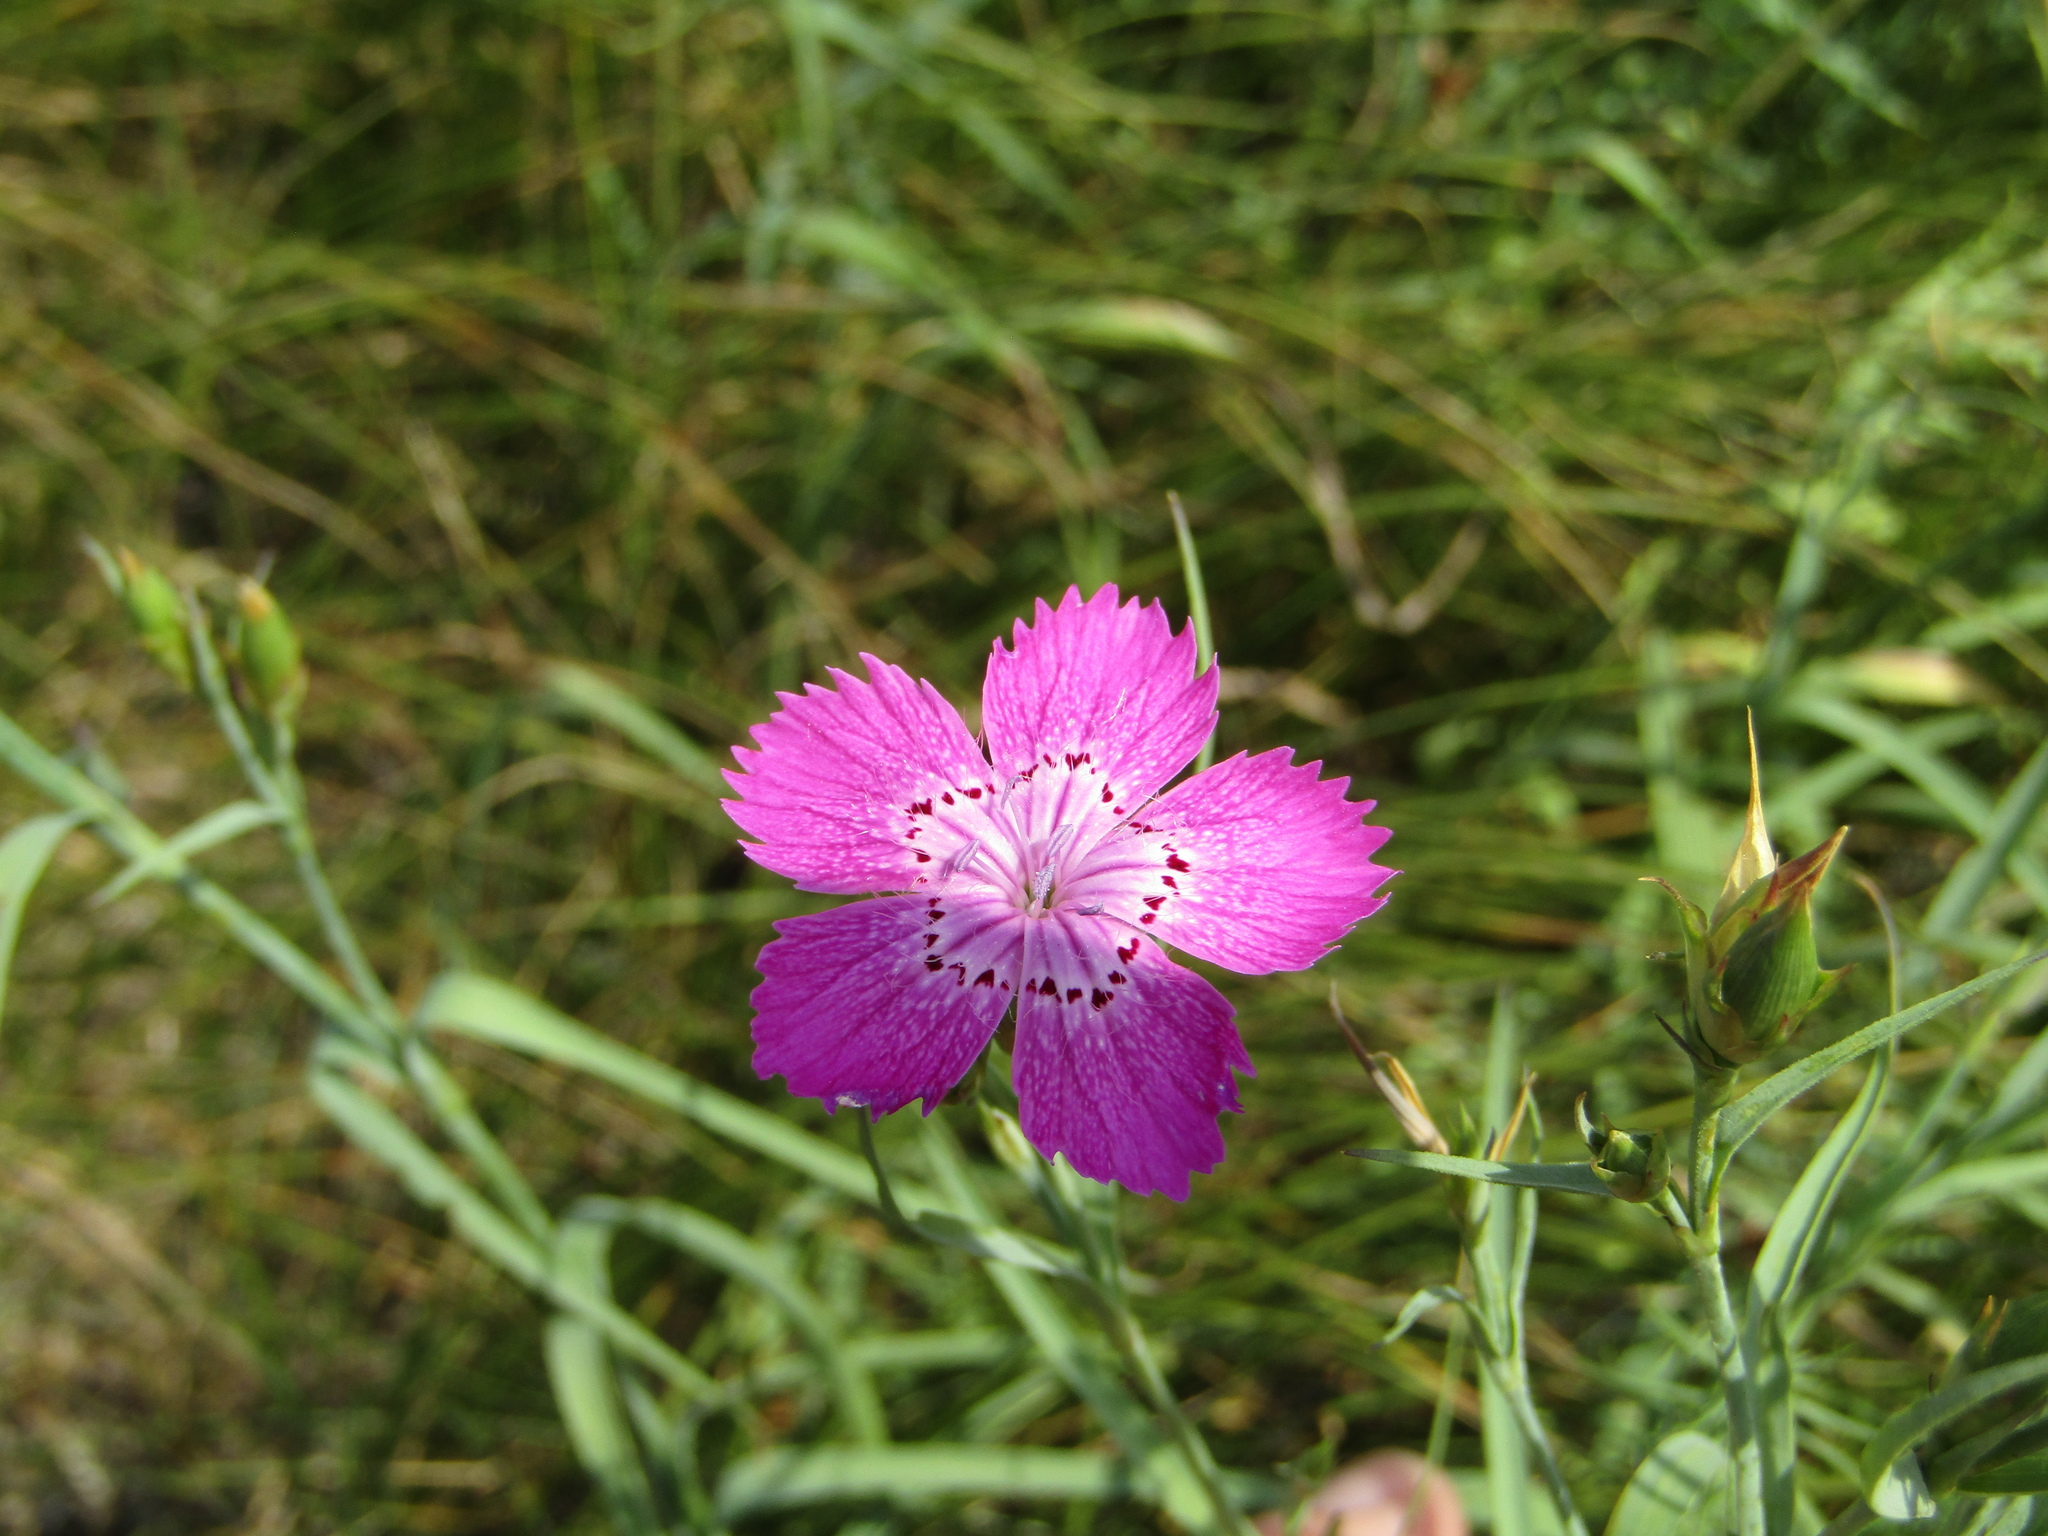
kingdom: Plantae
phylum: Tracheophyta
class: Magnoliopsida
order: Caryophyllales
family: Caryophyllaceae
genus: Dianthus
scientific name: Dianthus chinensis
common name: Rainbow pink
